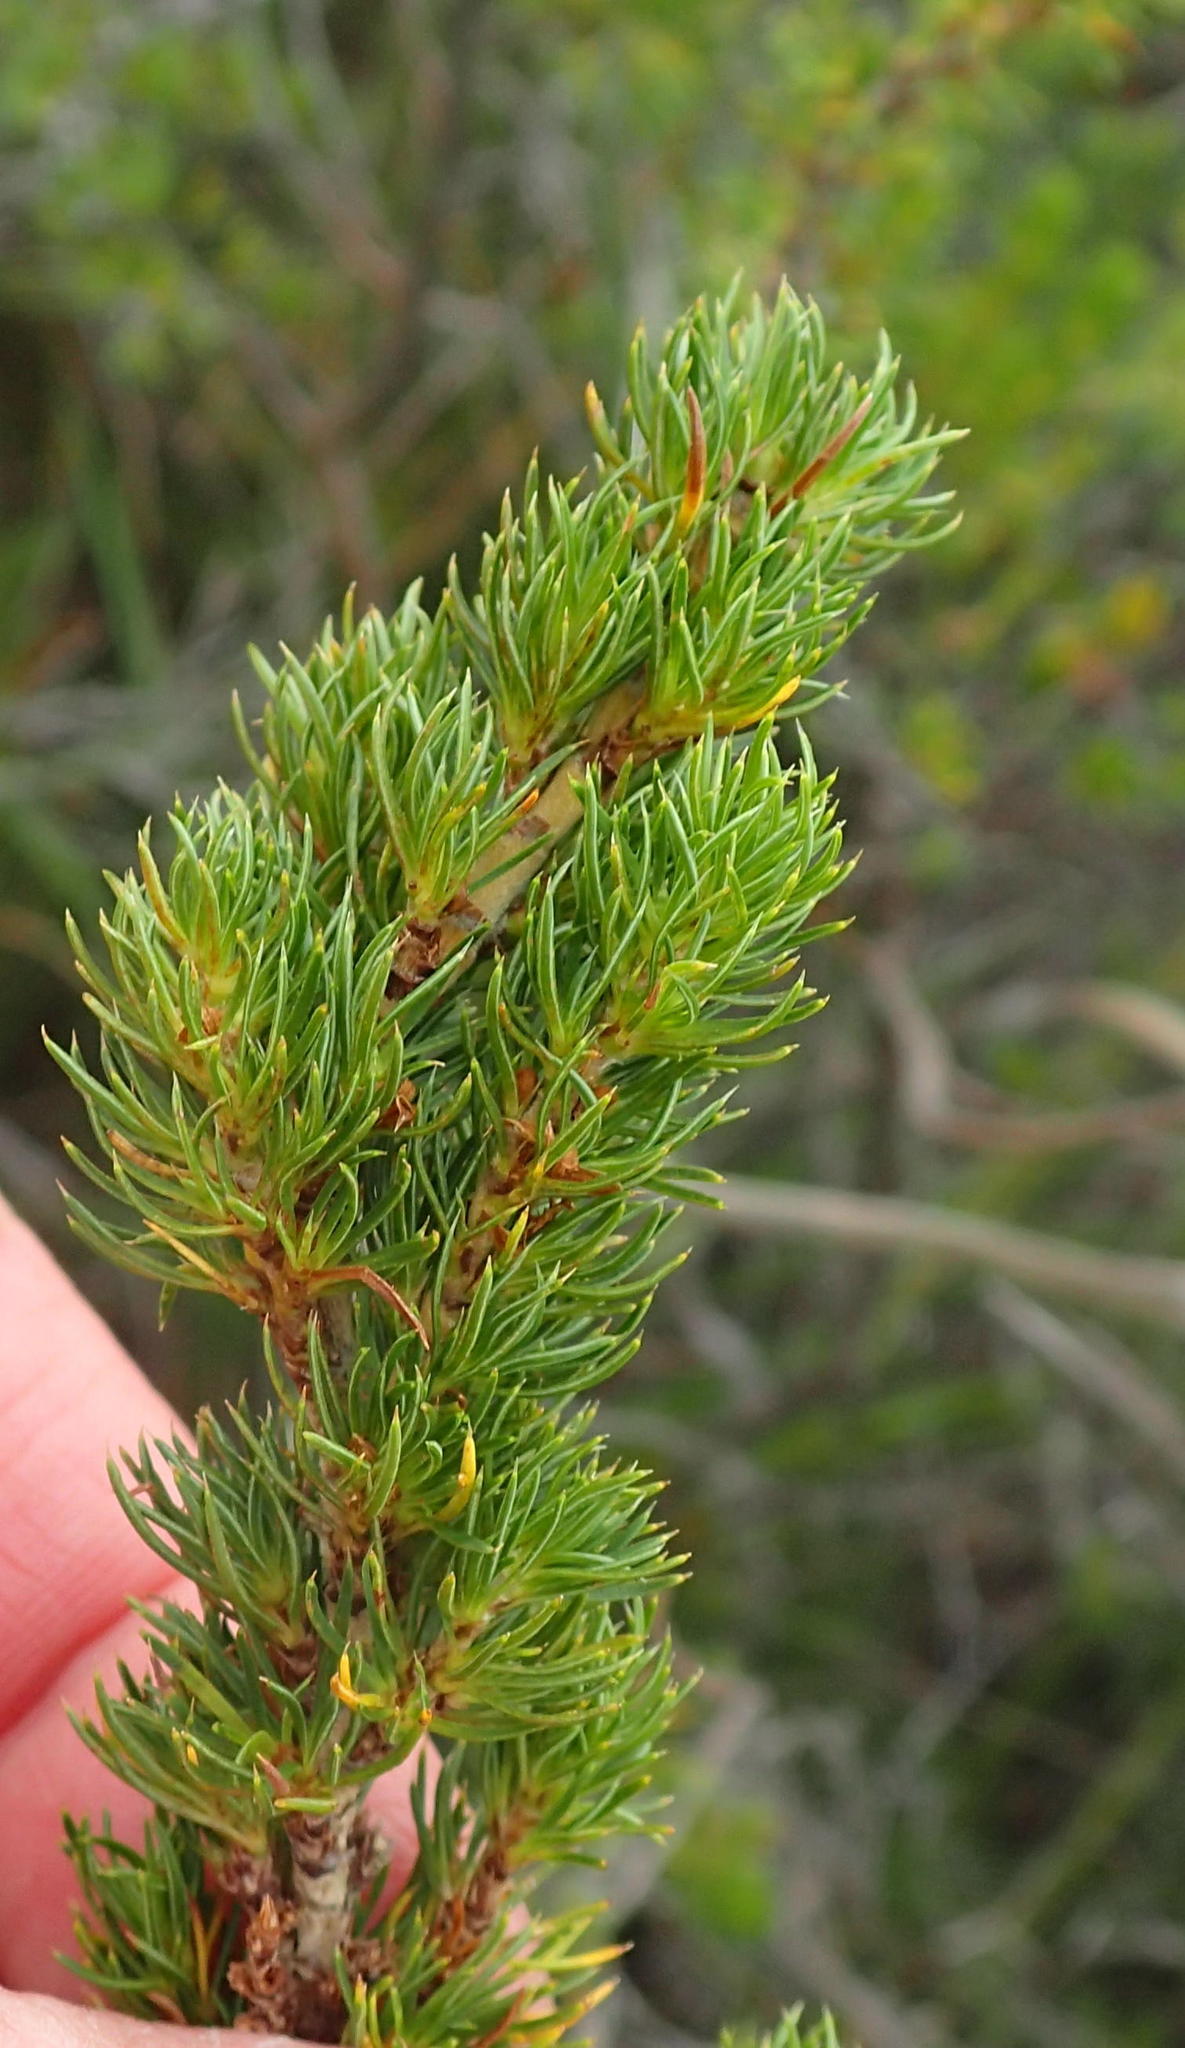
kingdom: Plantae
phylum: Tracheophyta
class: Magnoliopsida
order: Rosales
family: Rosaceae
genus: Cliffortia
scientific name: Cliffortia paucistaminea
